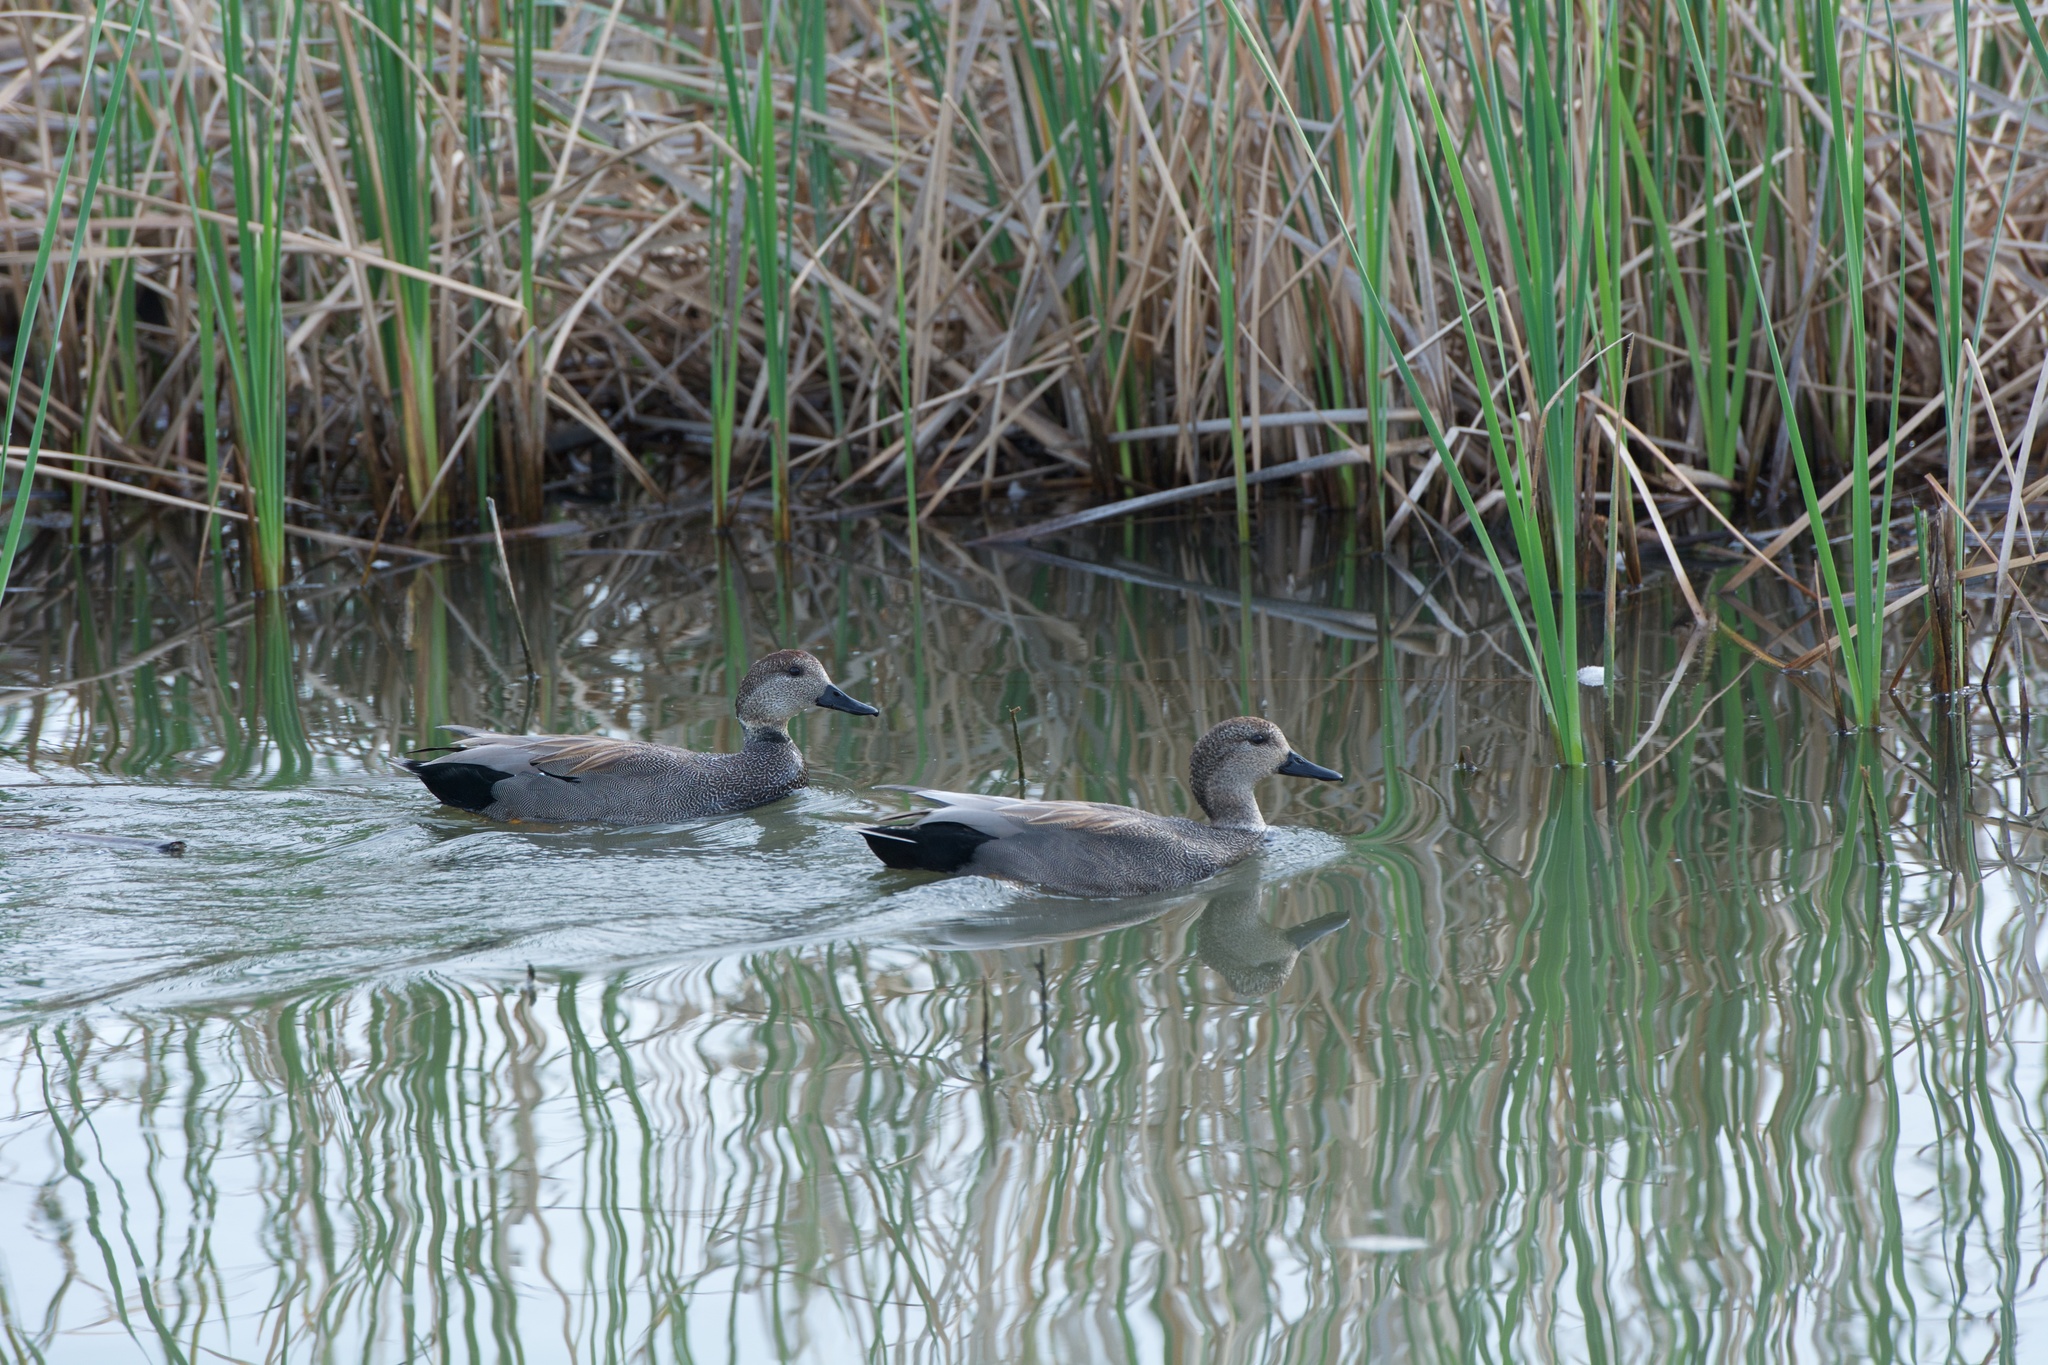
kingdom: Animalia
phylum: Chordata
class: Aves
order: Anseriformes
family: Anatidae
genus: Mareca
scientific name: Mareca strepera
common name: Gadwall
